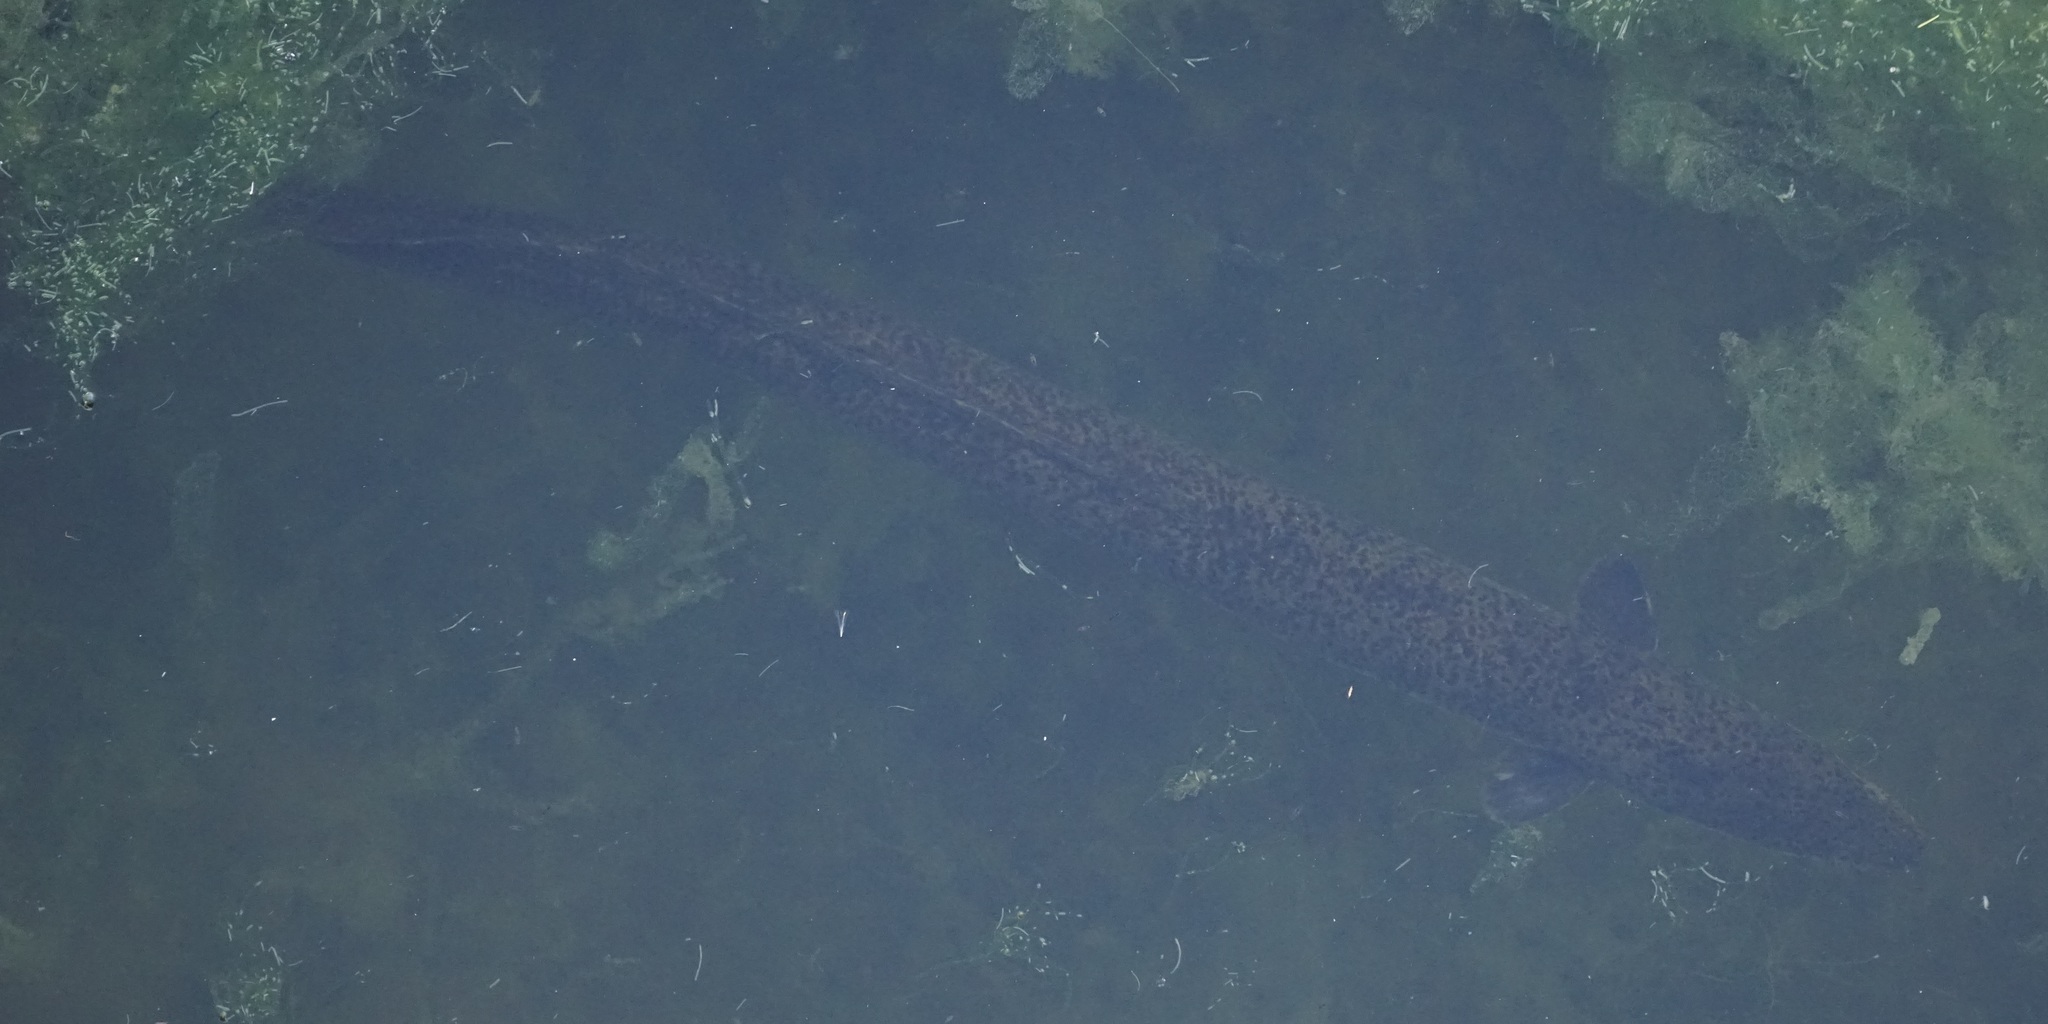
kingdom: Animalia
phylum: Chordata
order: Anguilliformes
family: Anguillidae
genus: Anguilla
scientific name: Anguilla reinhardtii
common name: Longfin eel
